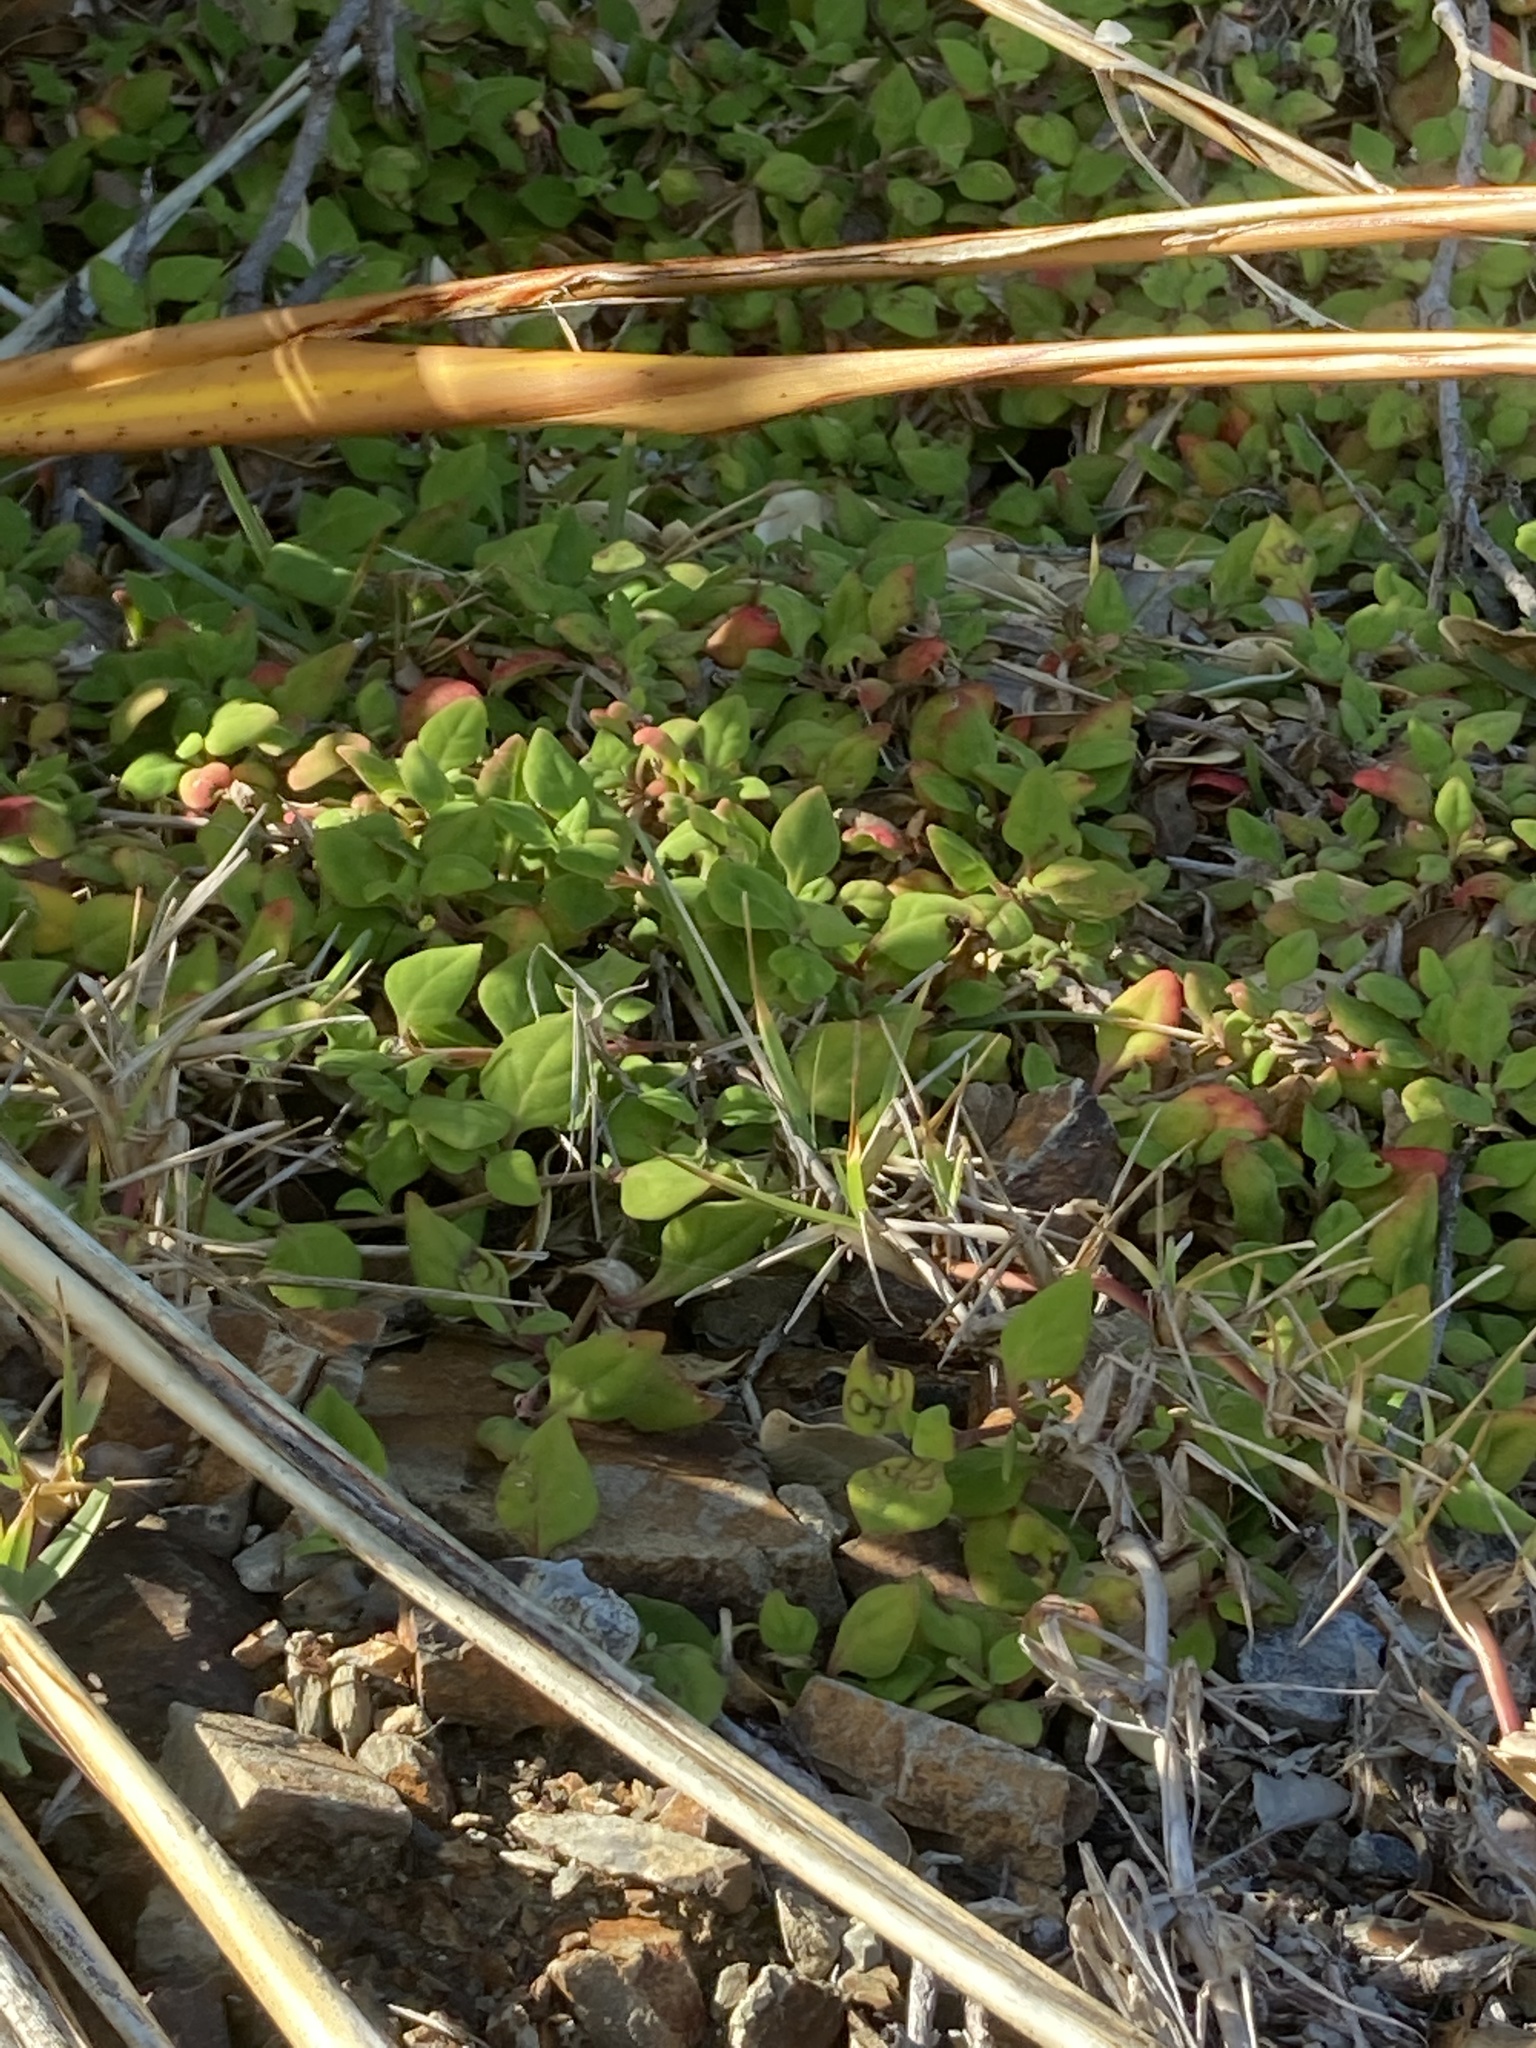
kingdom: Plantae
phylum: Tracheophyta
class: Magnoliopsida
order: Caryophyllales
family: Aizoaceae
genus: Tetragonia
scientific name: Tetragonia implexicoma
